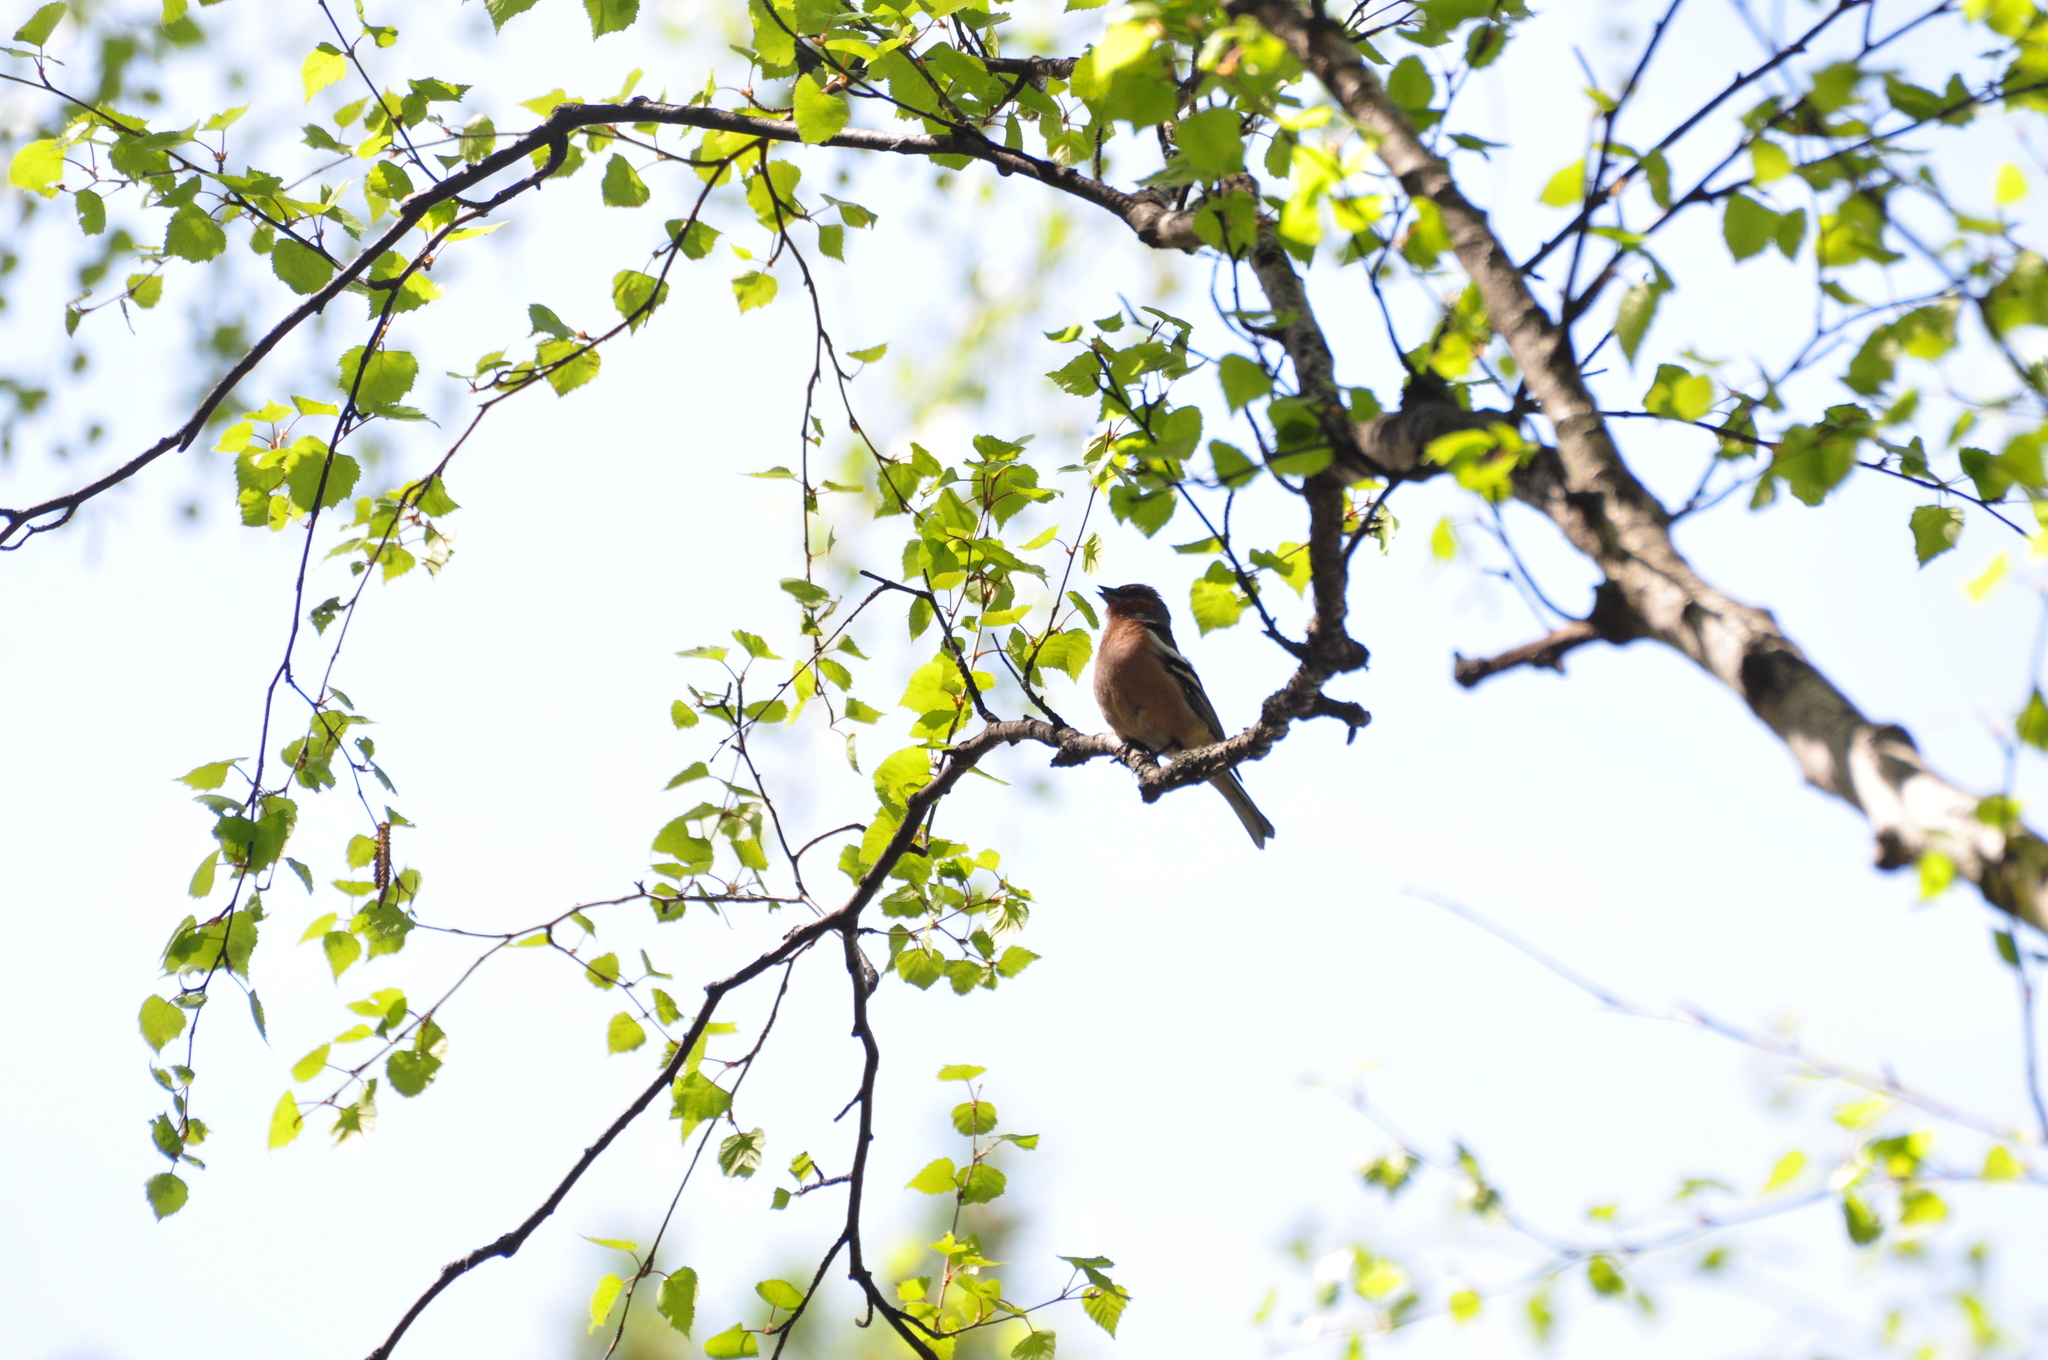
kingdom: Animalia
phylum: Chordata
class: Aves
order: Passeriformes
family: Fringillidae
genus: Fringilla
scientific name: Fringilla coelebs
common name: Common chaffinch
